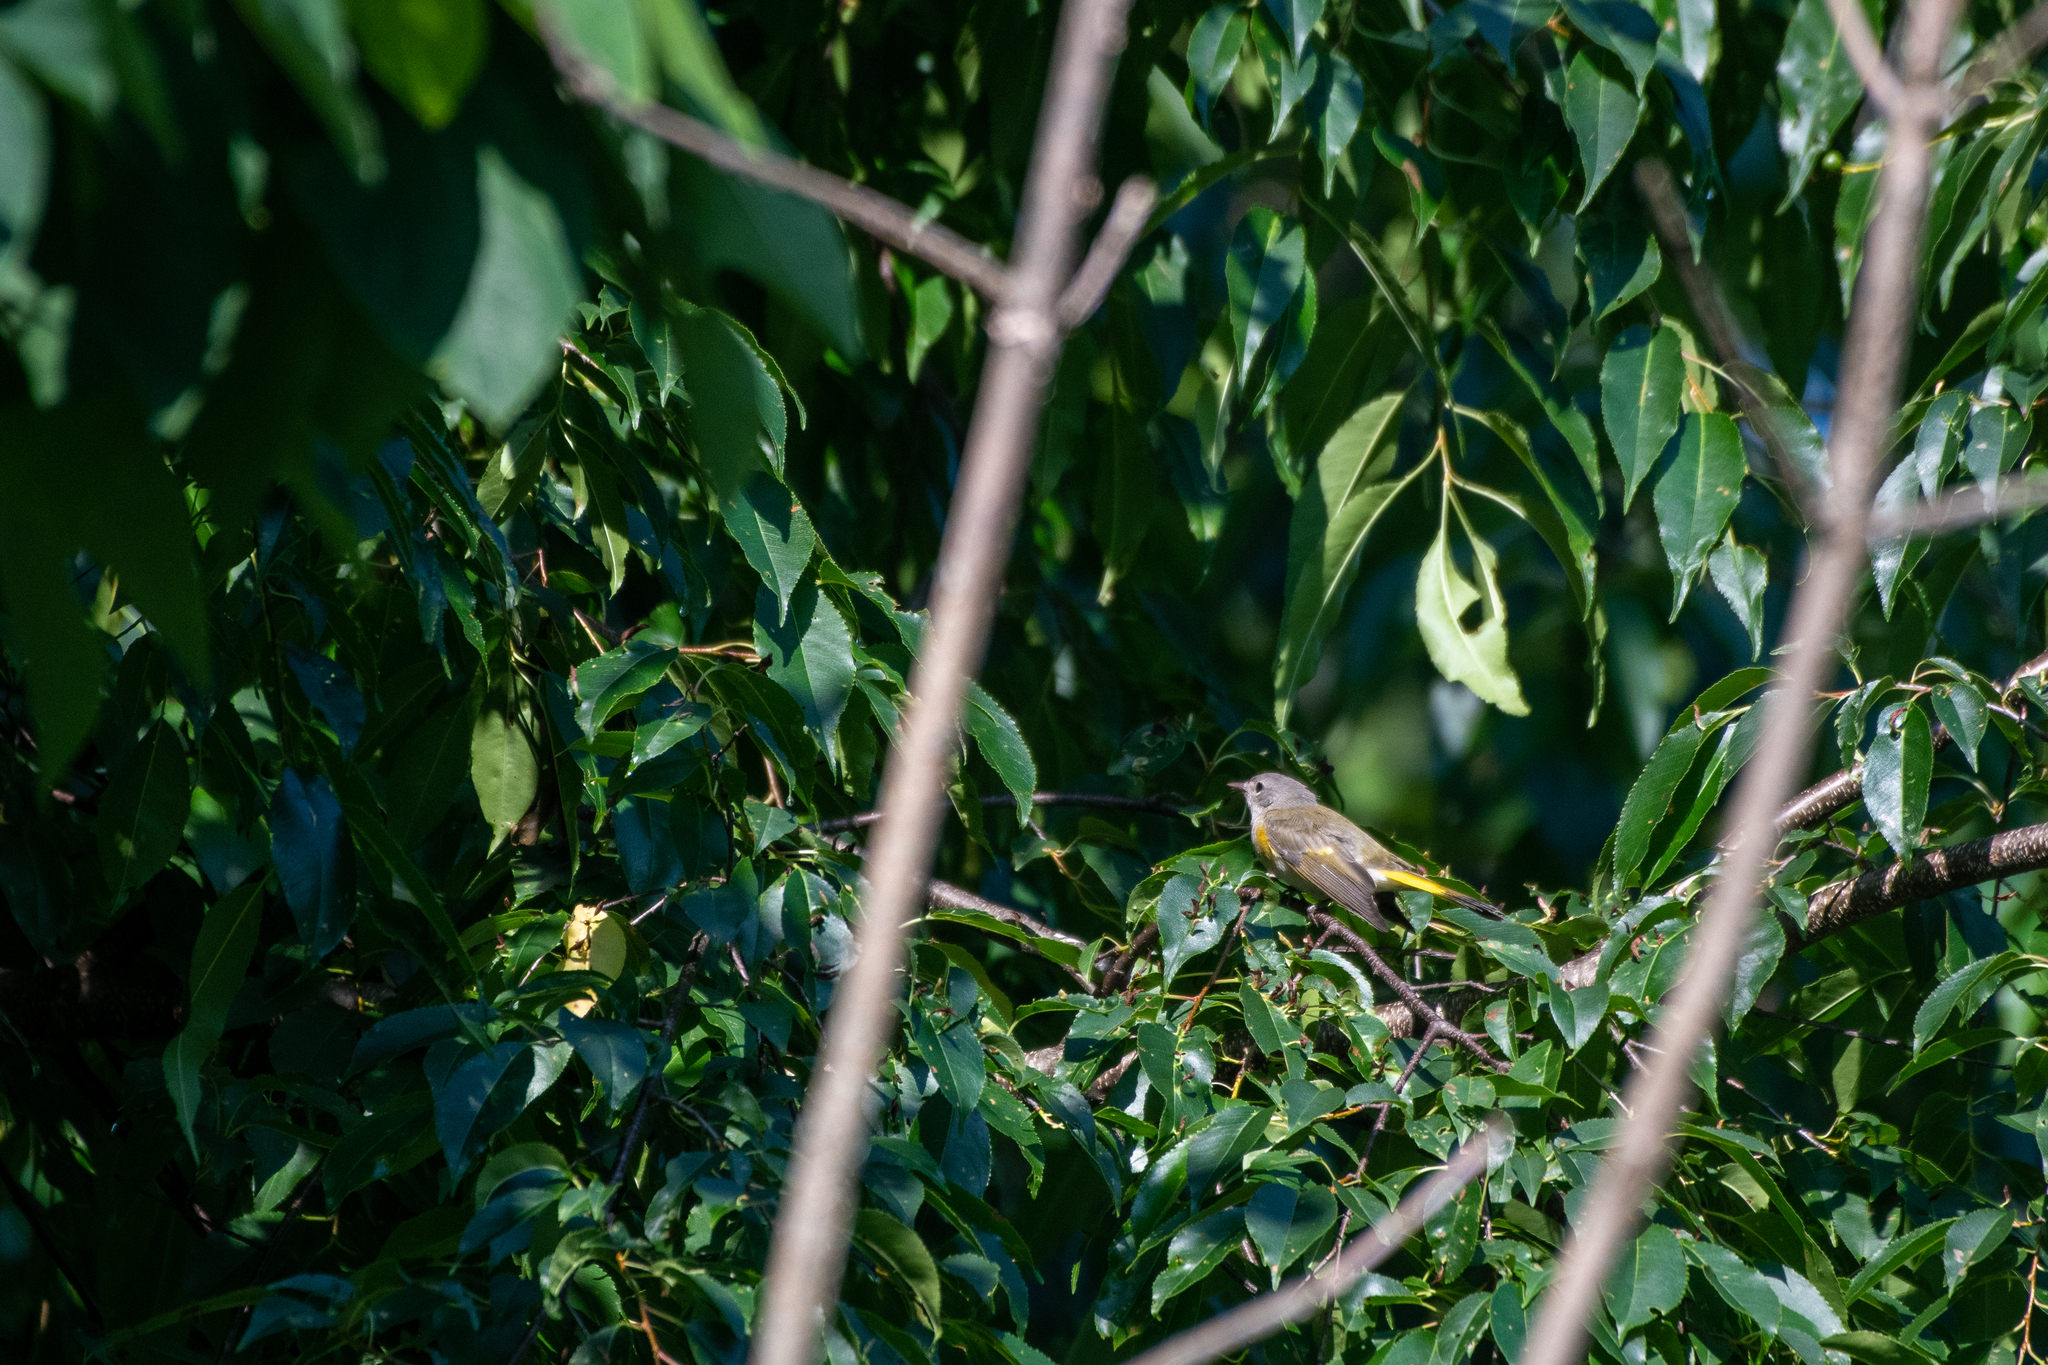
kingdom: Animalia
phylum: Chordata
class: Aves
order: Passeriformes
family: Parulidae
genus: Setophaga
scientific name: Setophaga ruticilla
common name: American redstart
